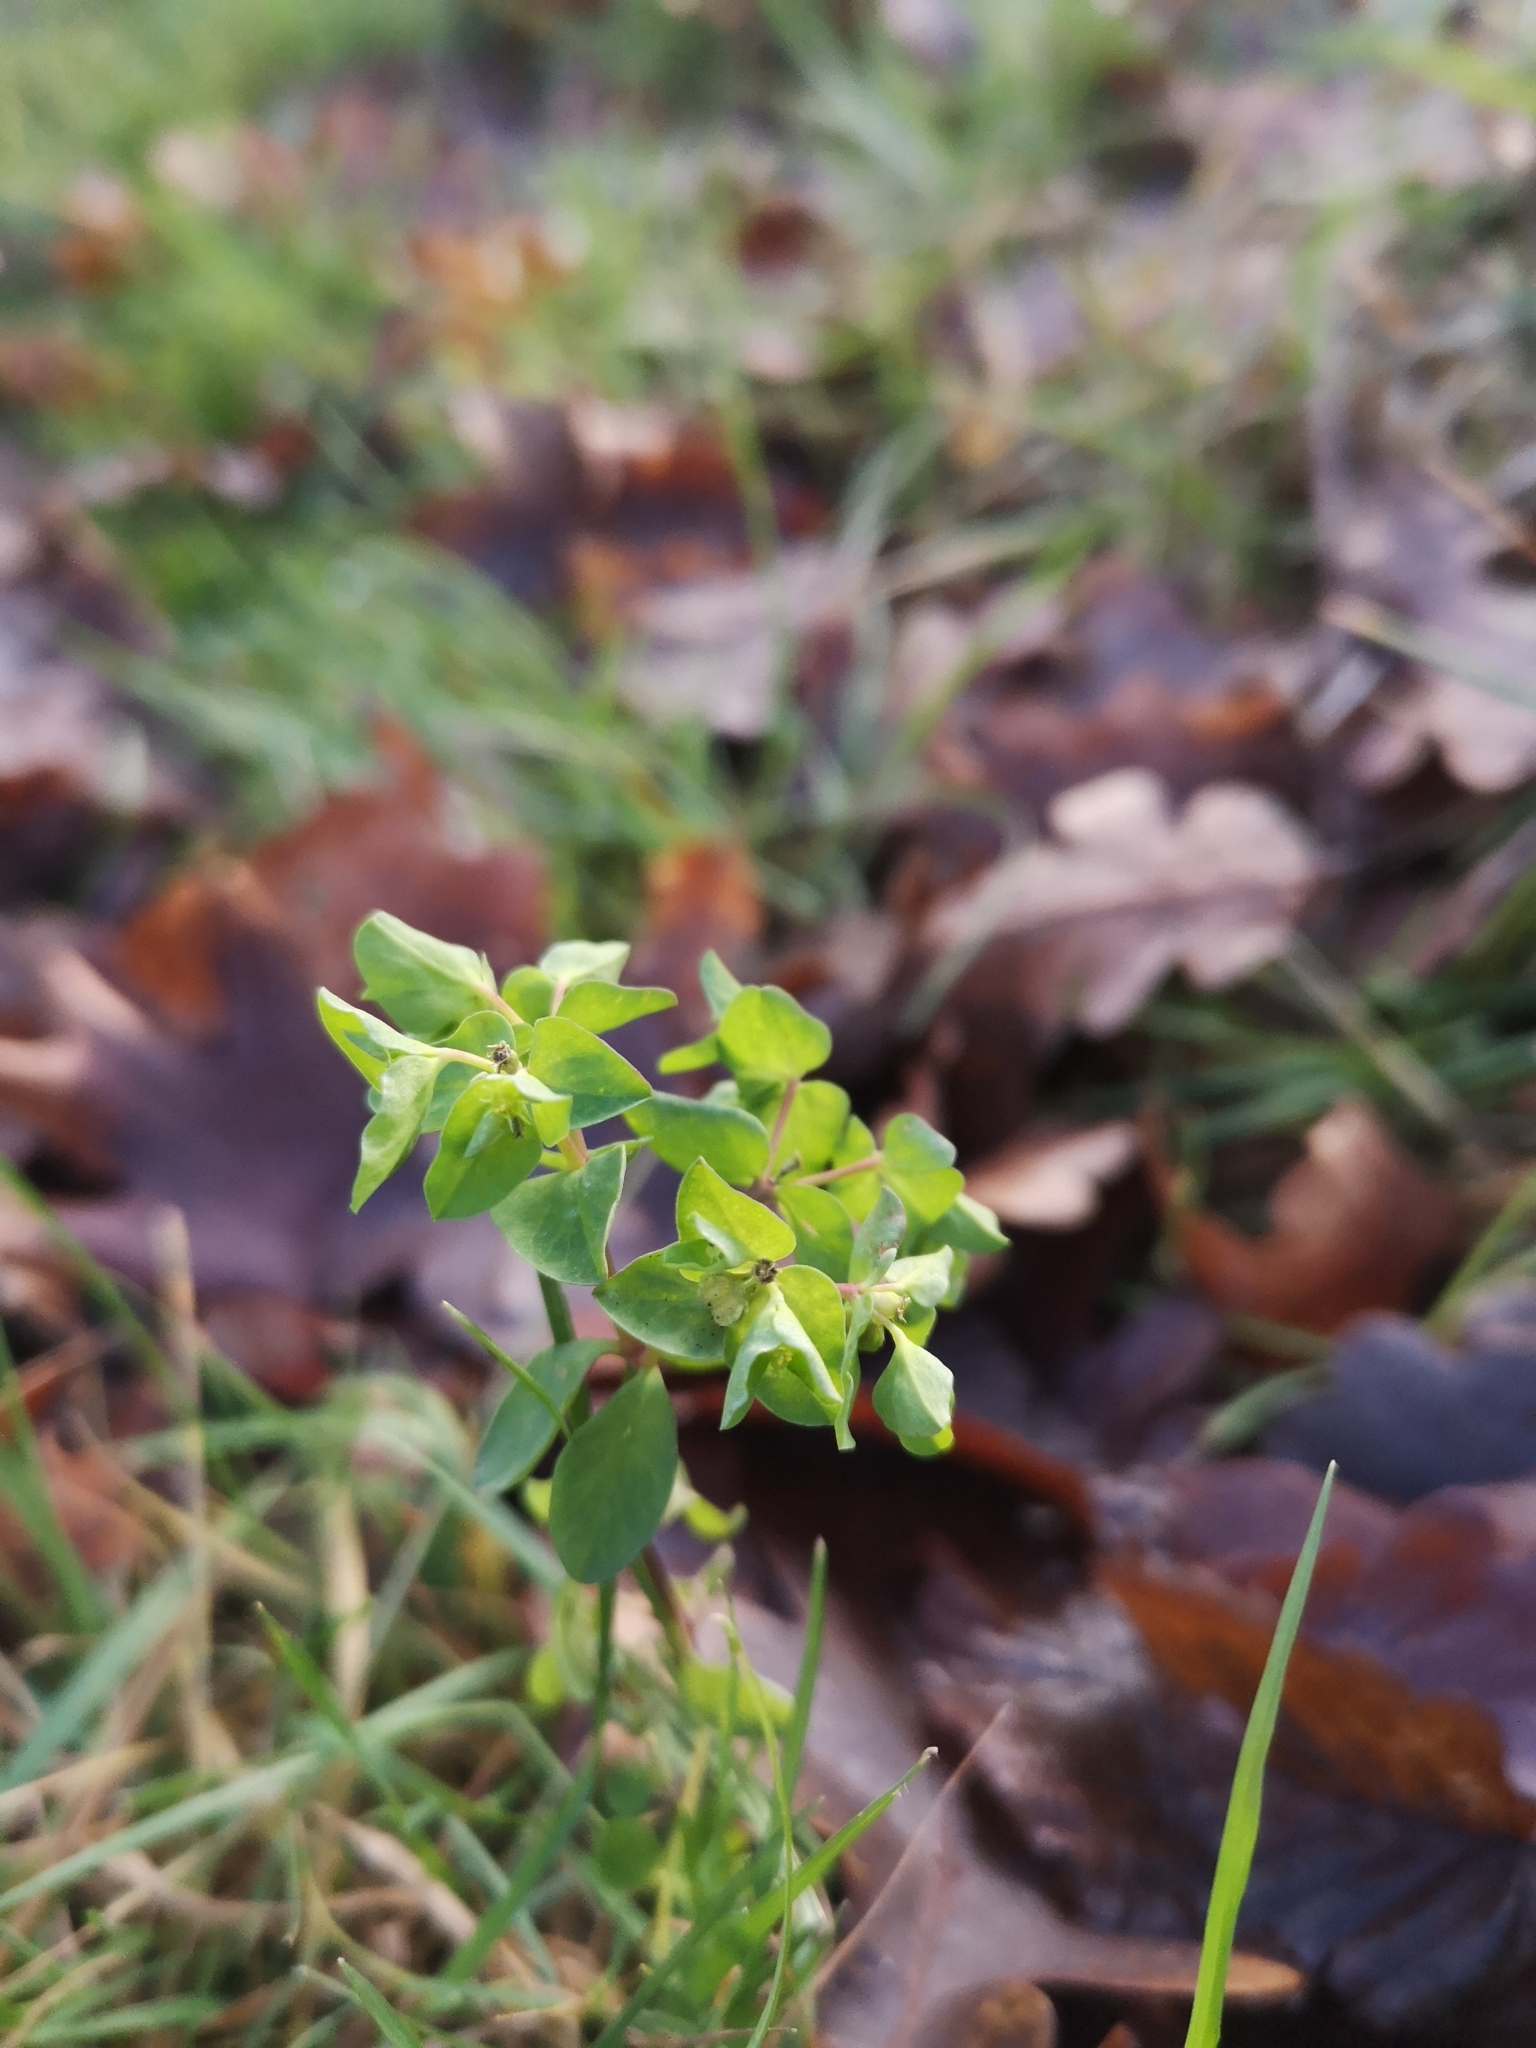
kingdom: Plantae
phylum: Tracheophyta
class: Magnoliopsida
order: Malpighiales
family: Euphorbiaceae
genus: Euphorbia
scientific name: Euphorbia peplus
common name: Petty spurge
